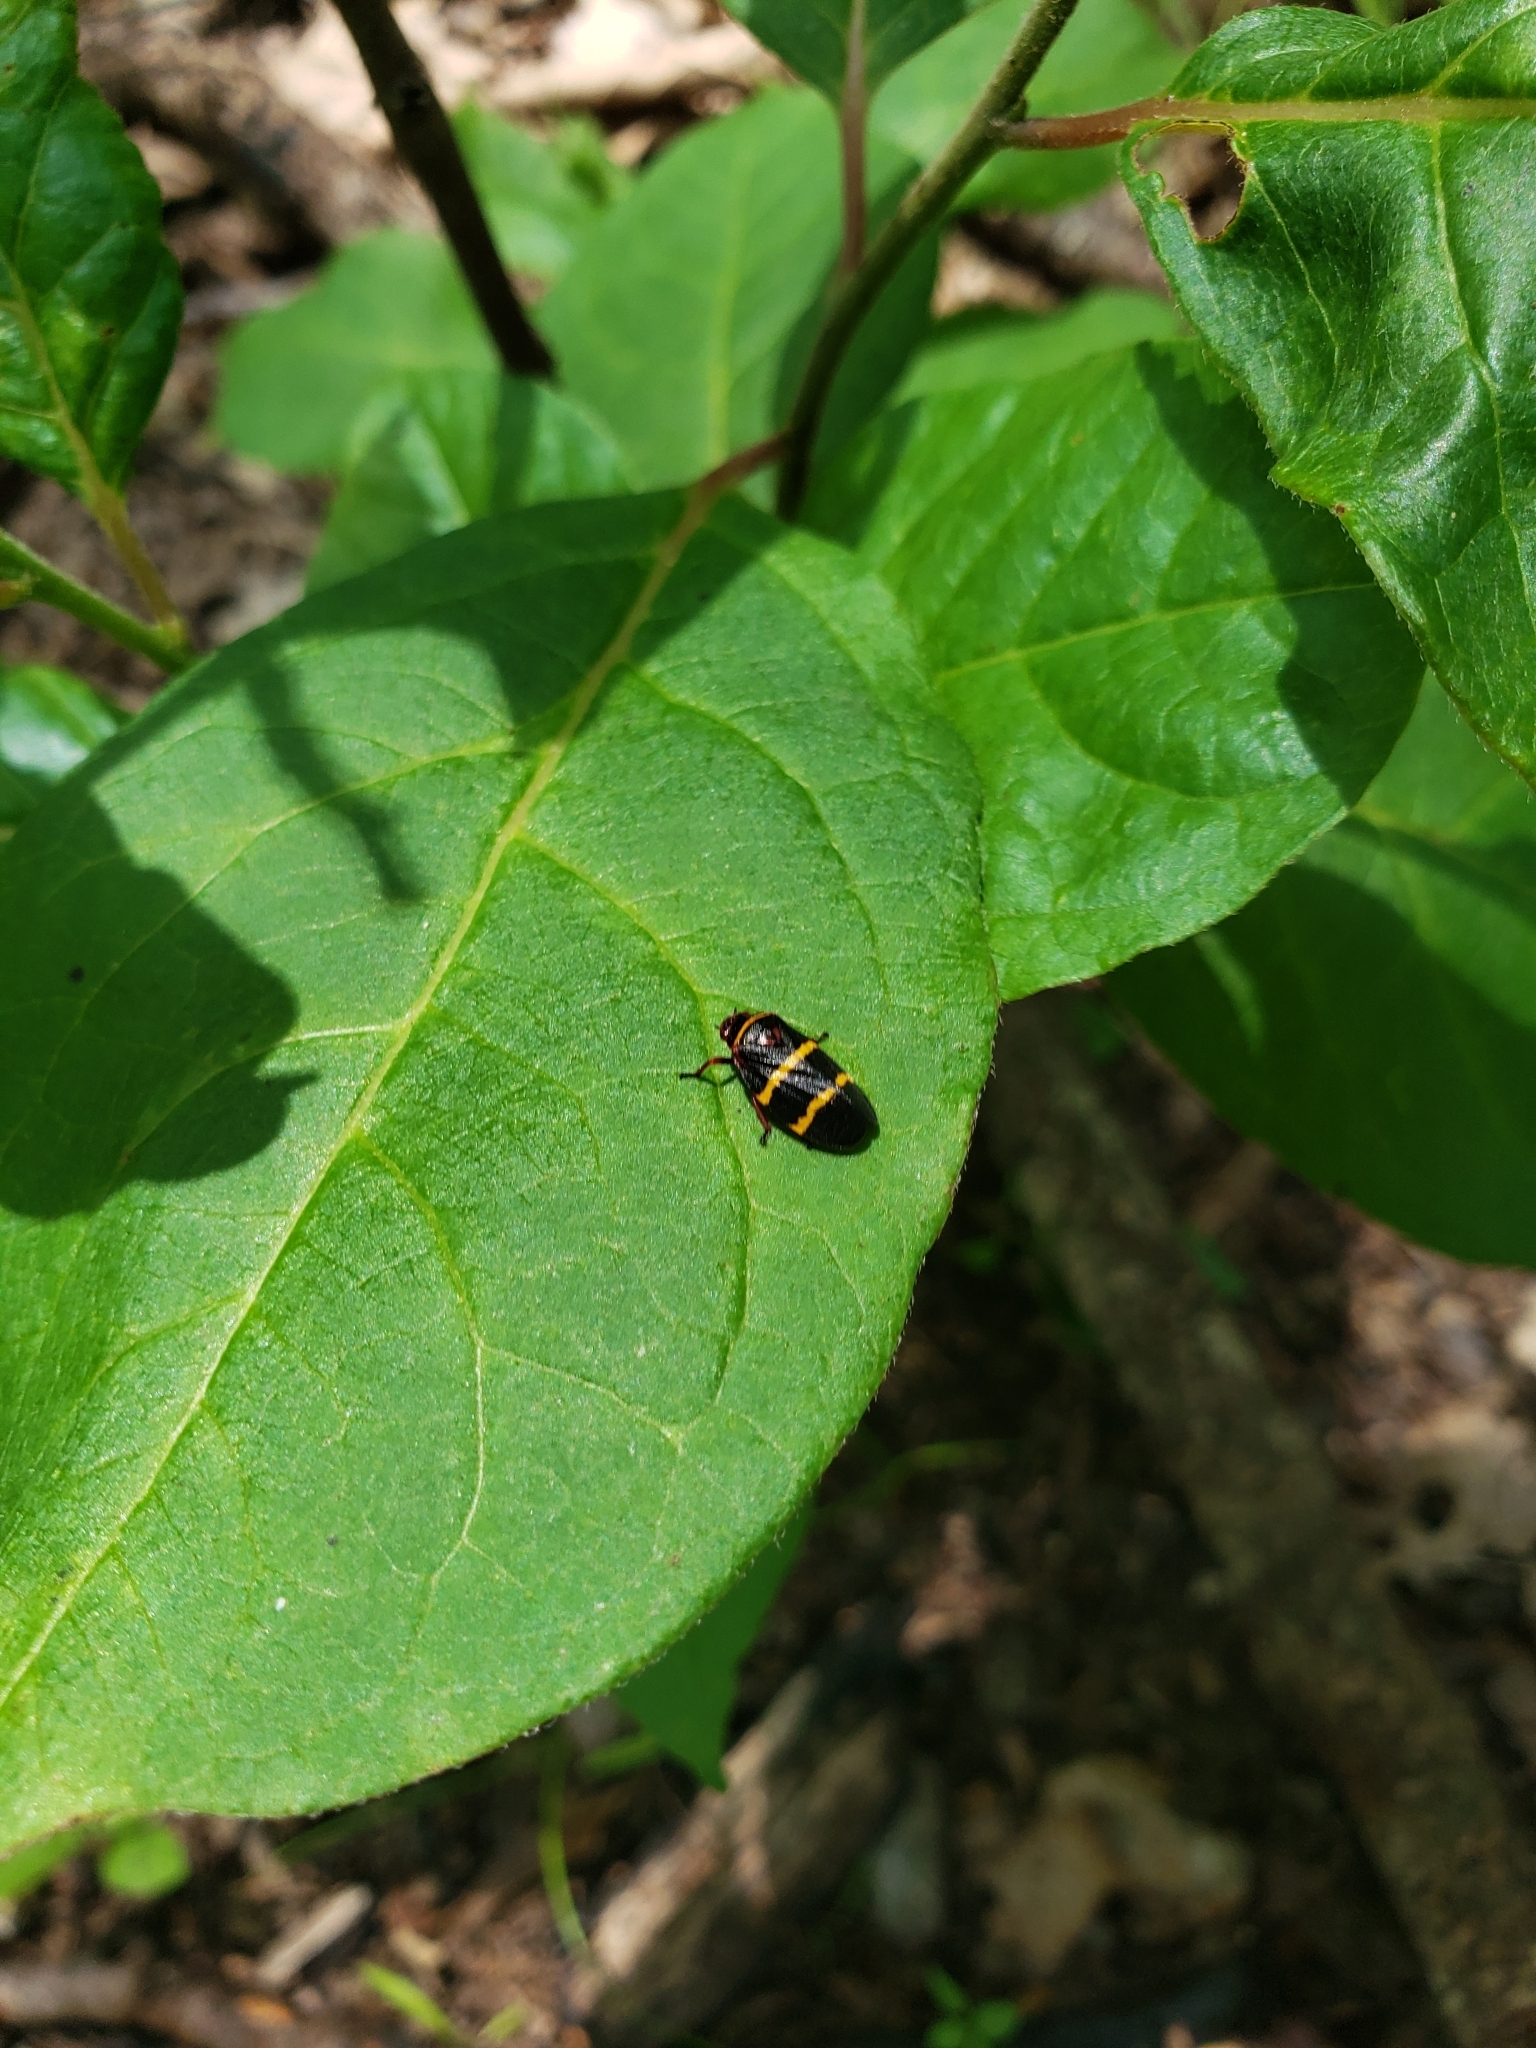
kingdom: Animalia
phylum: Arthropoda
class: Insecta
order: Hemiptera
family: Cercopidae
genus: Prosapia
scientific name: Prosapia bicincta
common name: Twolined spittlebug
